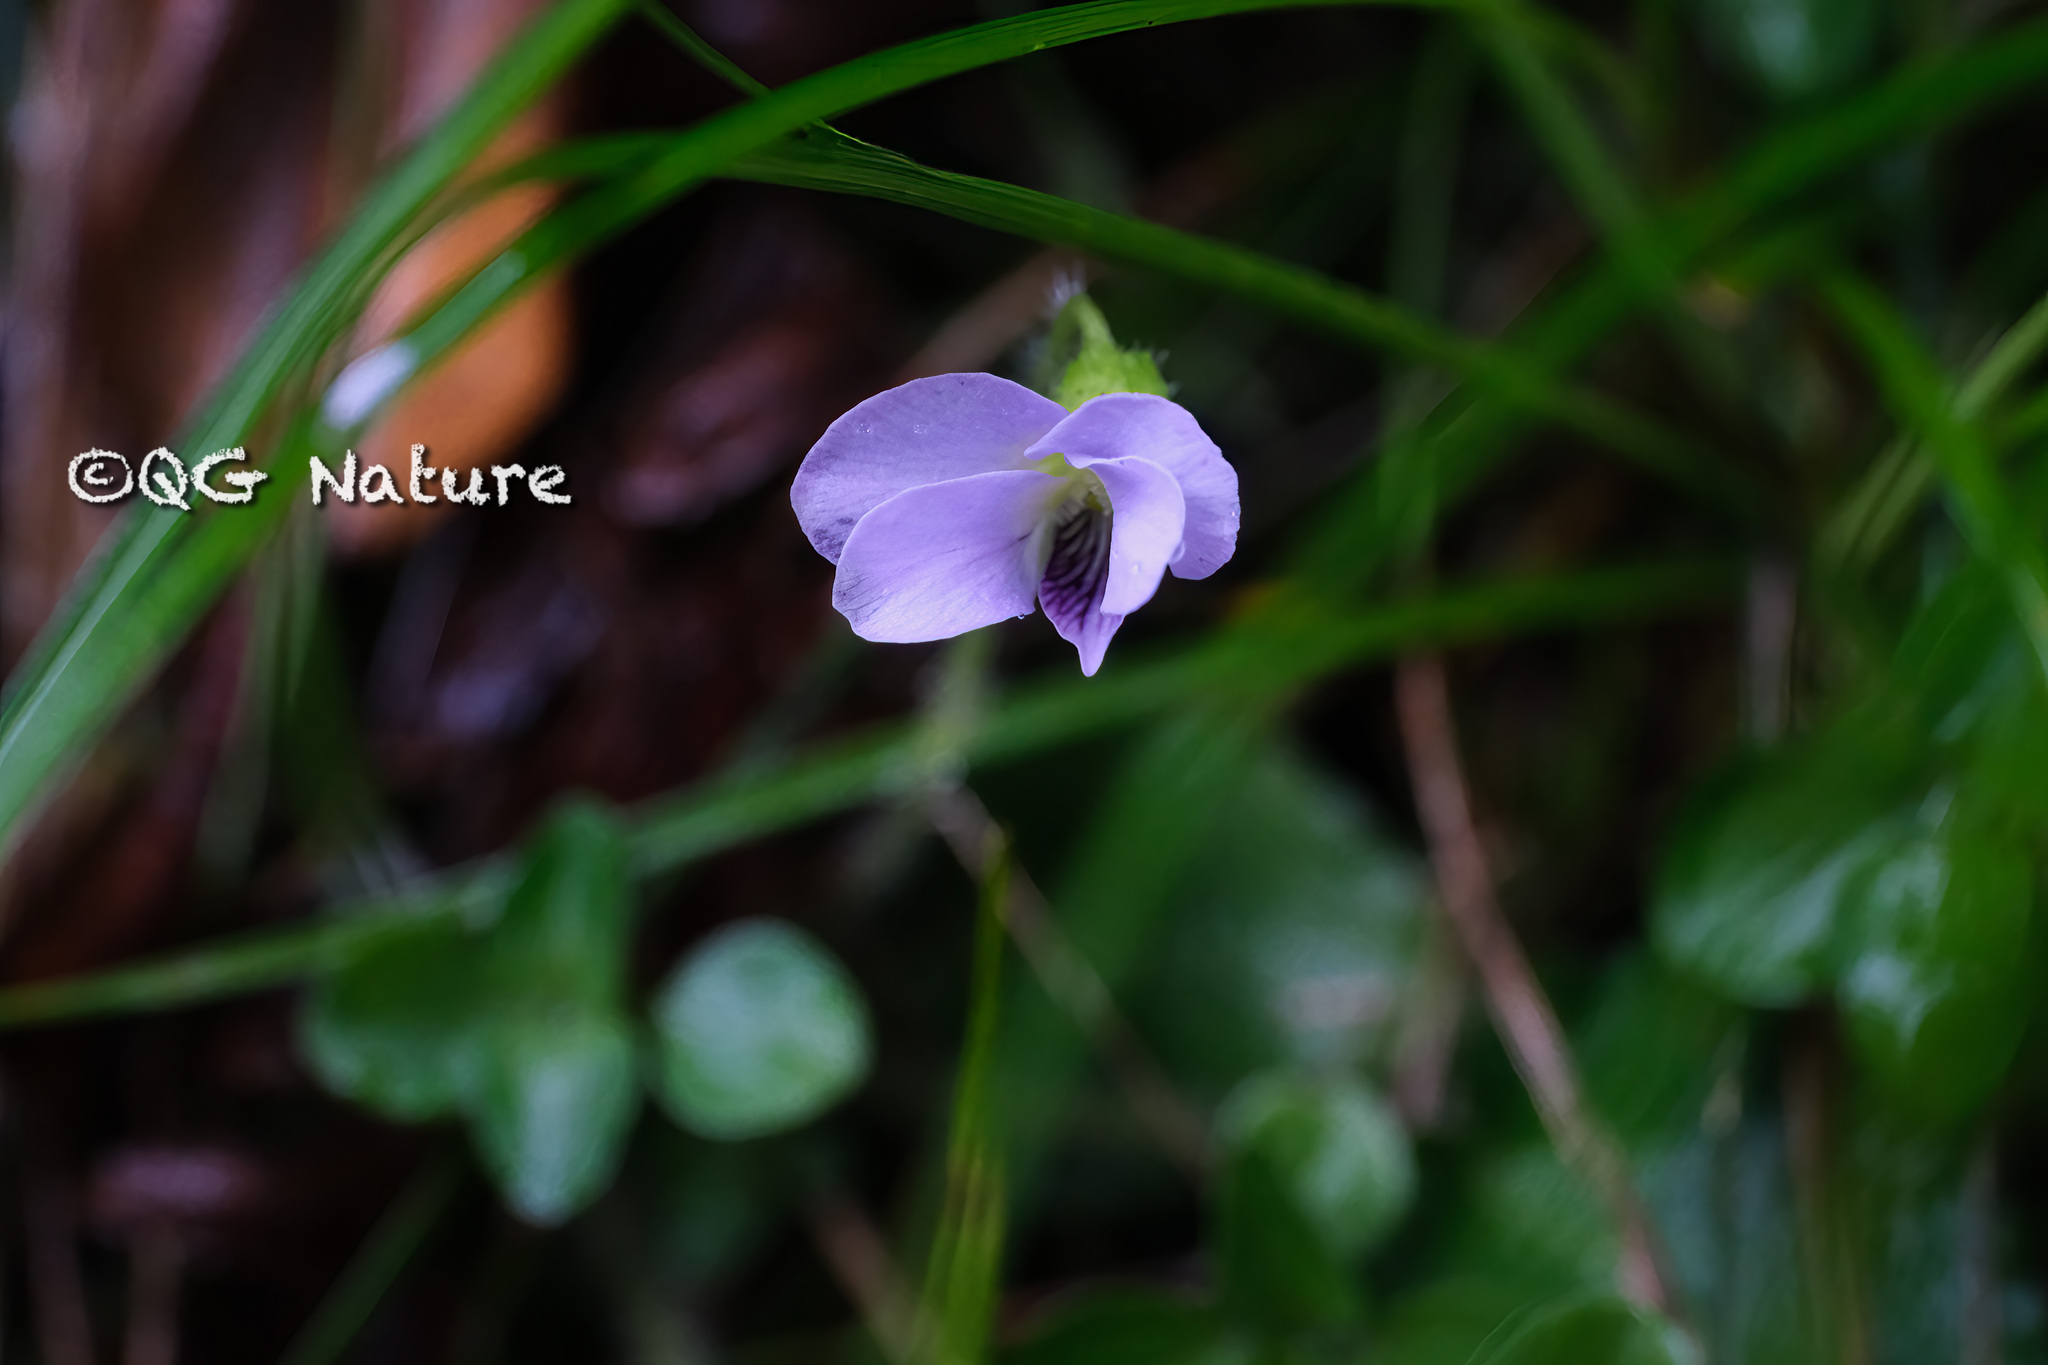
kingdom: Plantae
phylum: Tracheophyta
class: Magnoliopsida
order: Malpighiales
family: Violaceae
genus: Viola
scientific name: Viola diffusa
